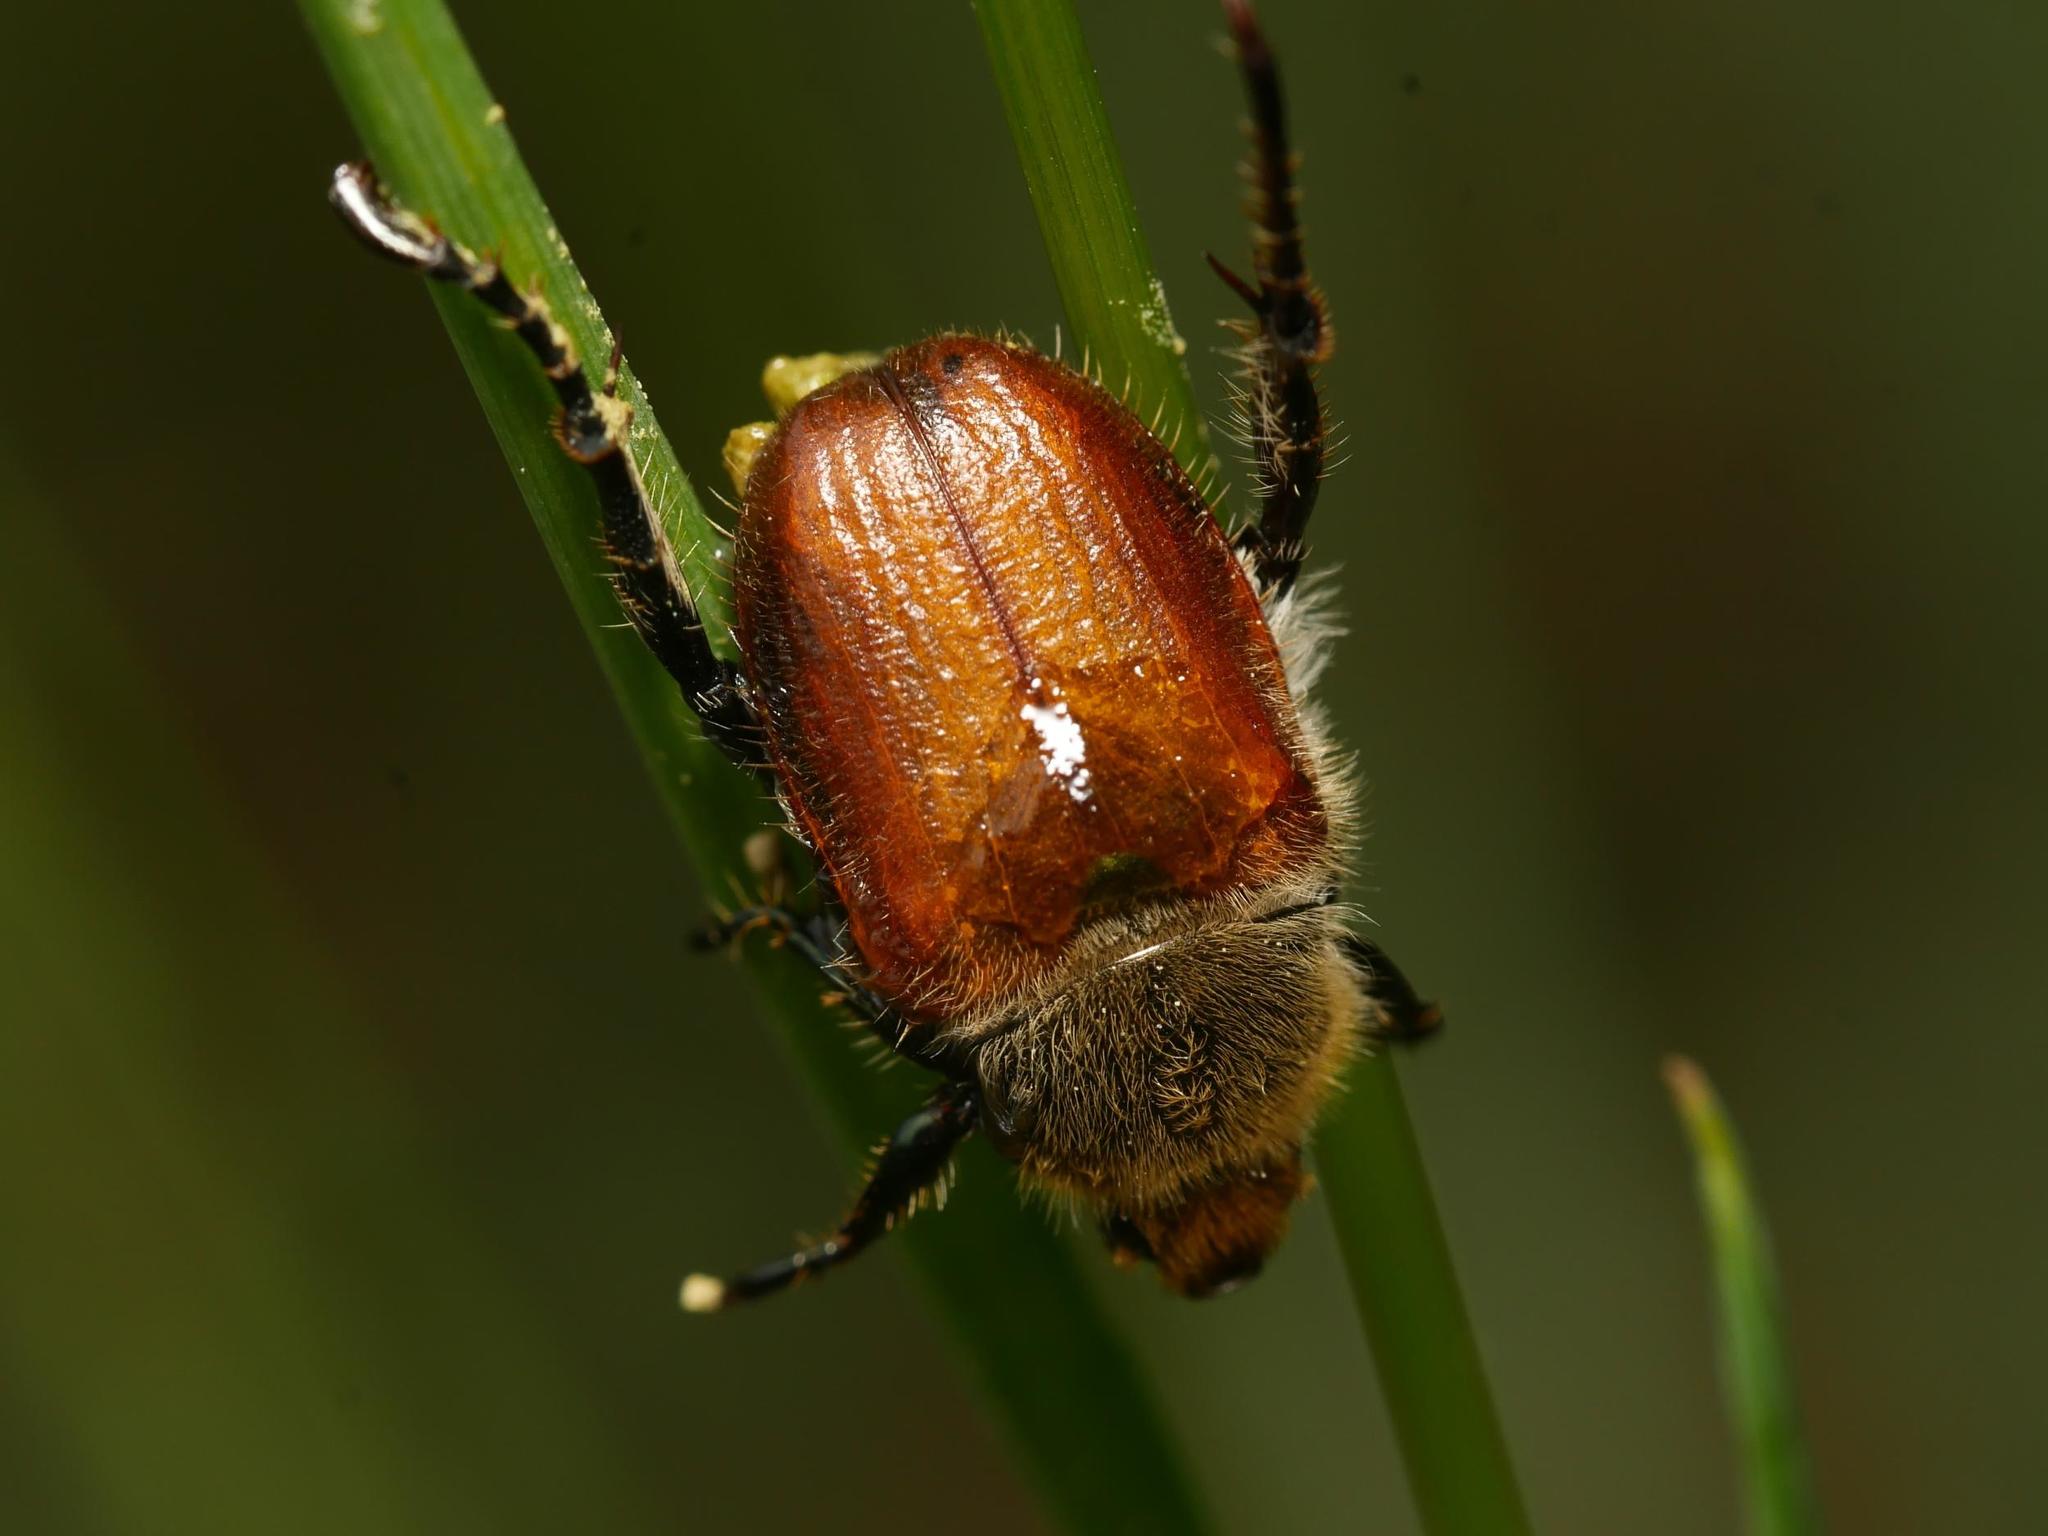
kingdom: Animalia
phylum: Arthropoda
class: Insecta
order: Coleoptera
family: Scarabaeidae
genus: Chaetopteroplia
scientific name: Chaetopteroplia segetum
